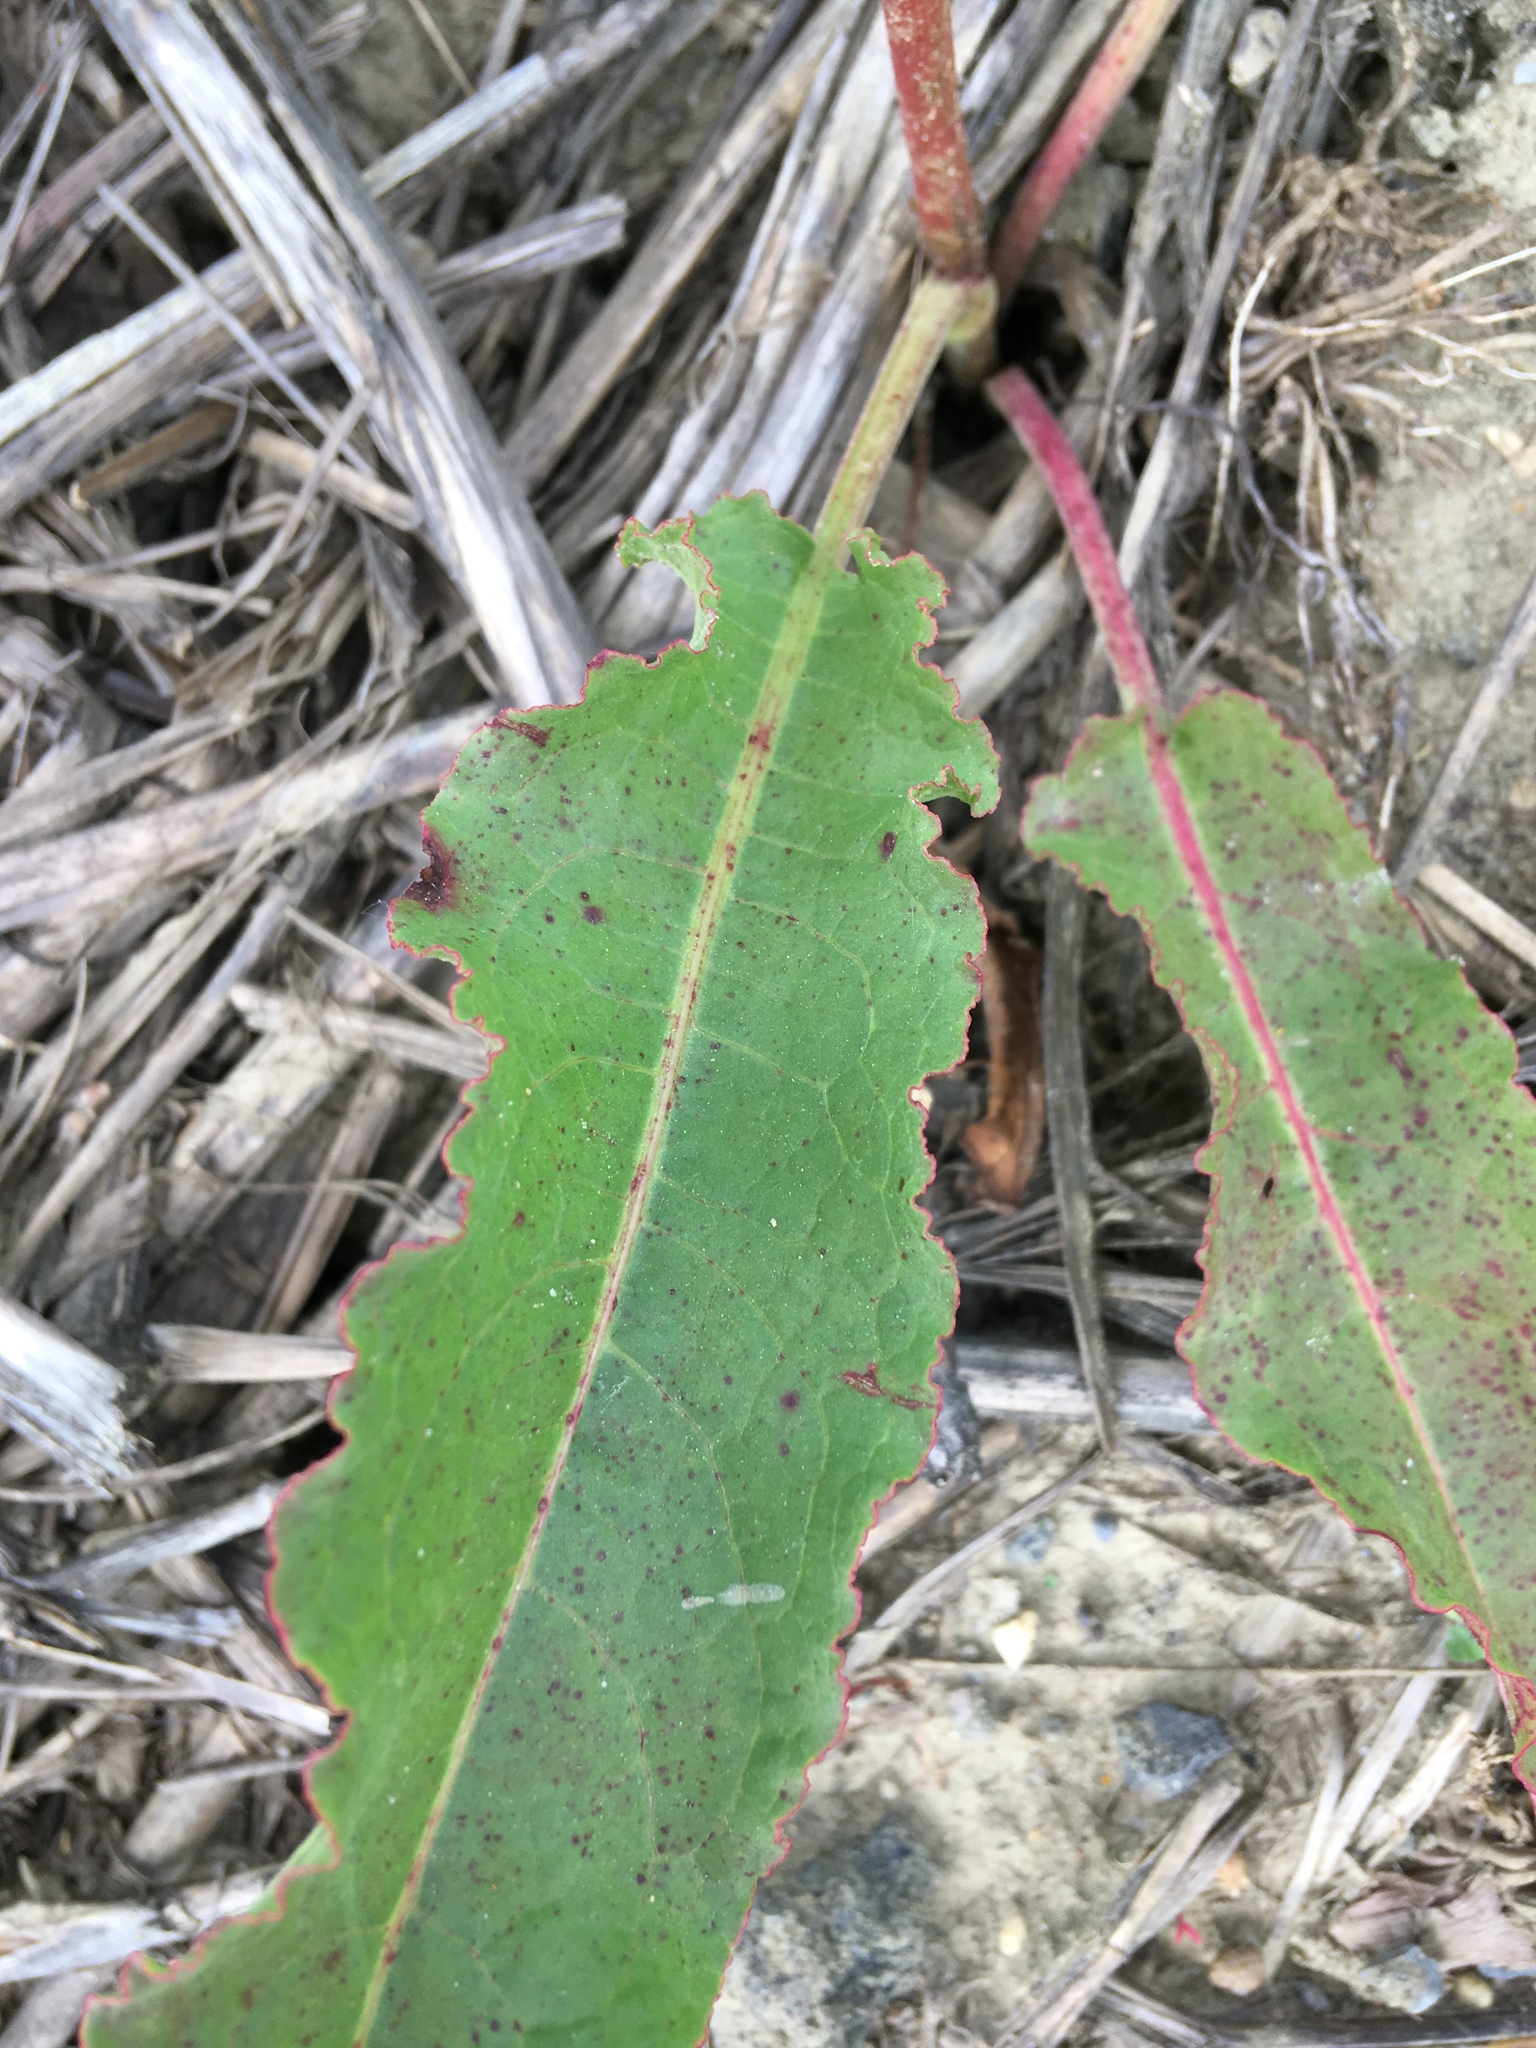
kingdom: Plantae
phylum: Tracheophyta
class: Magnoliopsida
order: Caryophyllales
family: Polygonaceae
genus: Rumex
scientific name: Rumex crispus
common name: Curled dock
